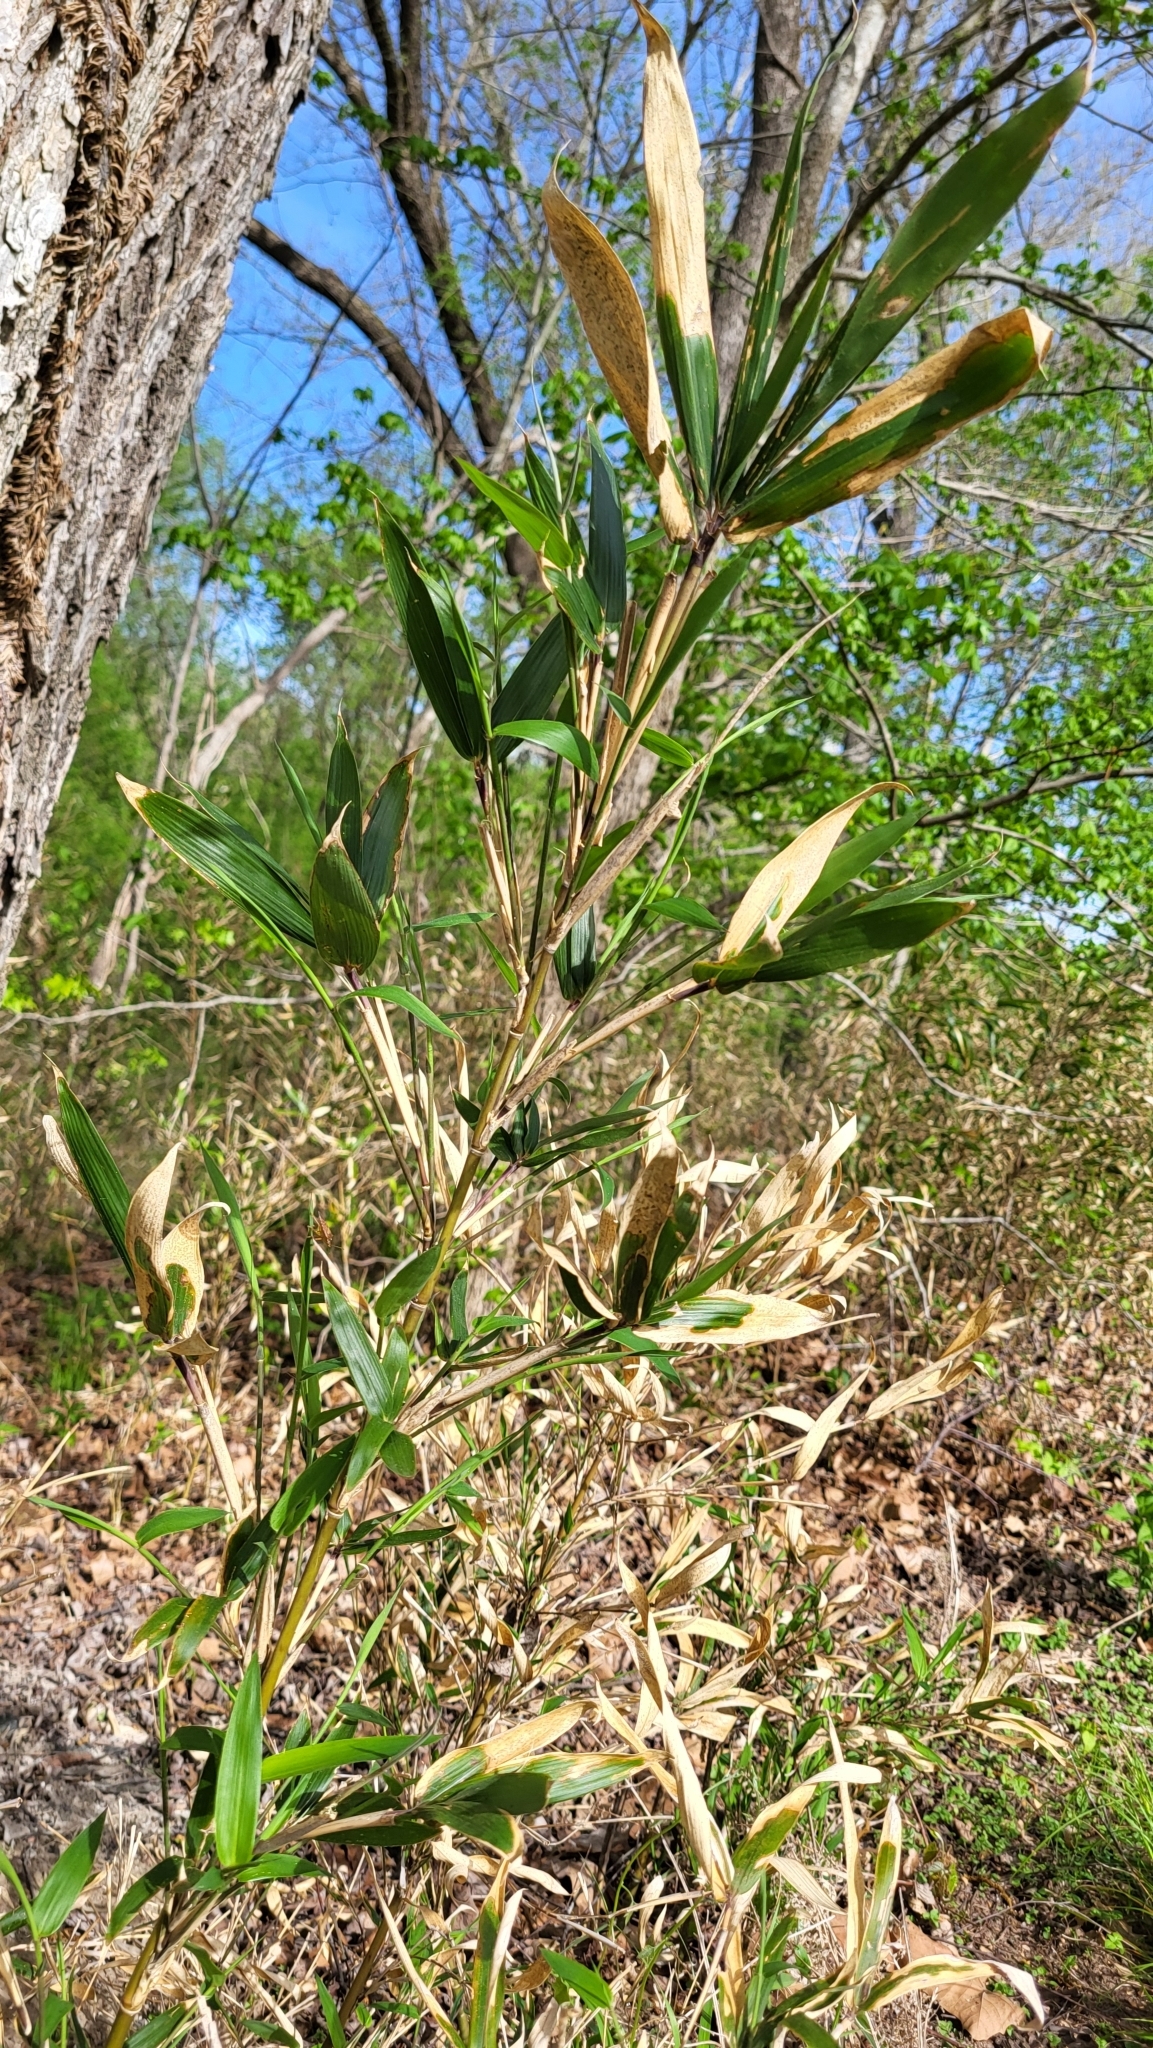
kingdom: Plantae
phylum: Tracheophyta
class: Liliopsida
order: Poales
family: Poaceae
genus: Arundinaria
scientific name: Arundinaria gigantea
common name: Giant cane
